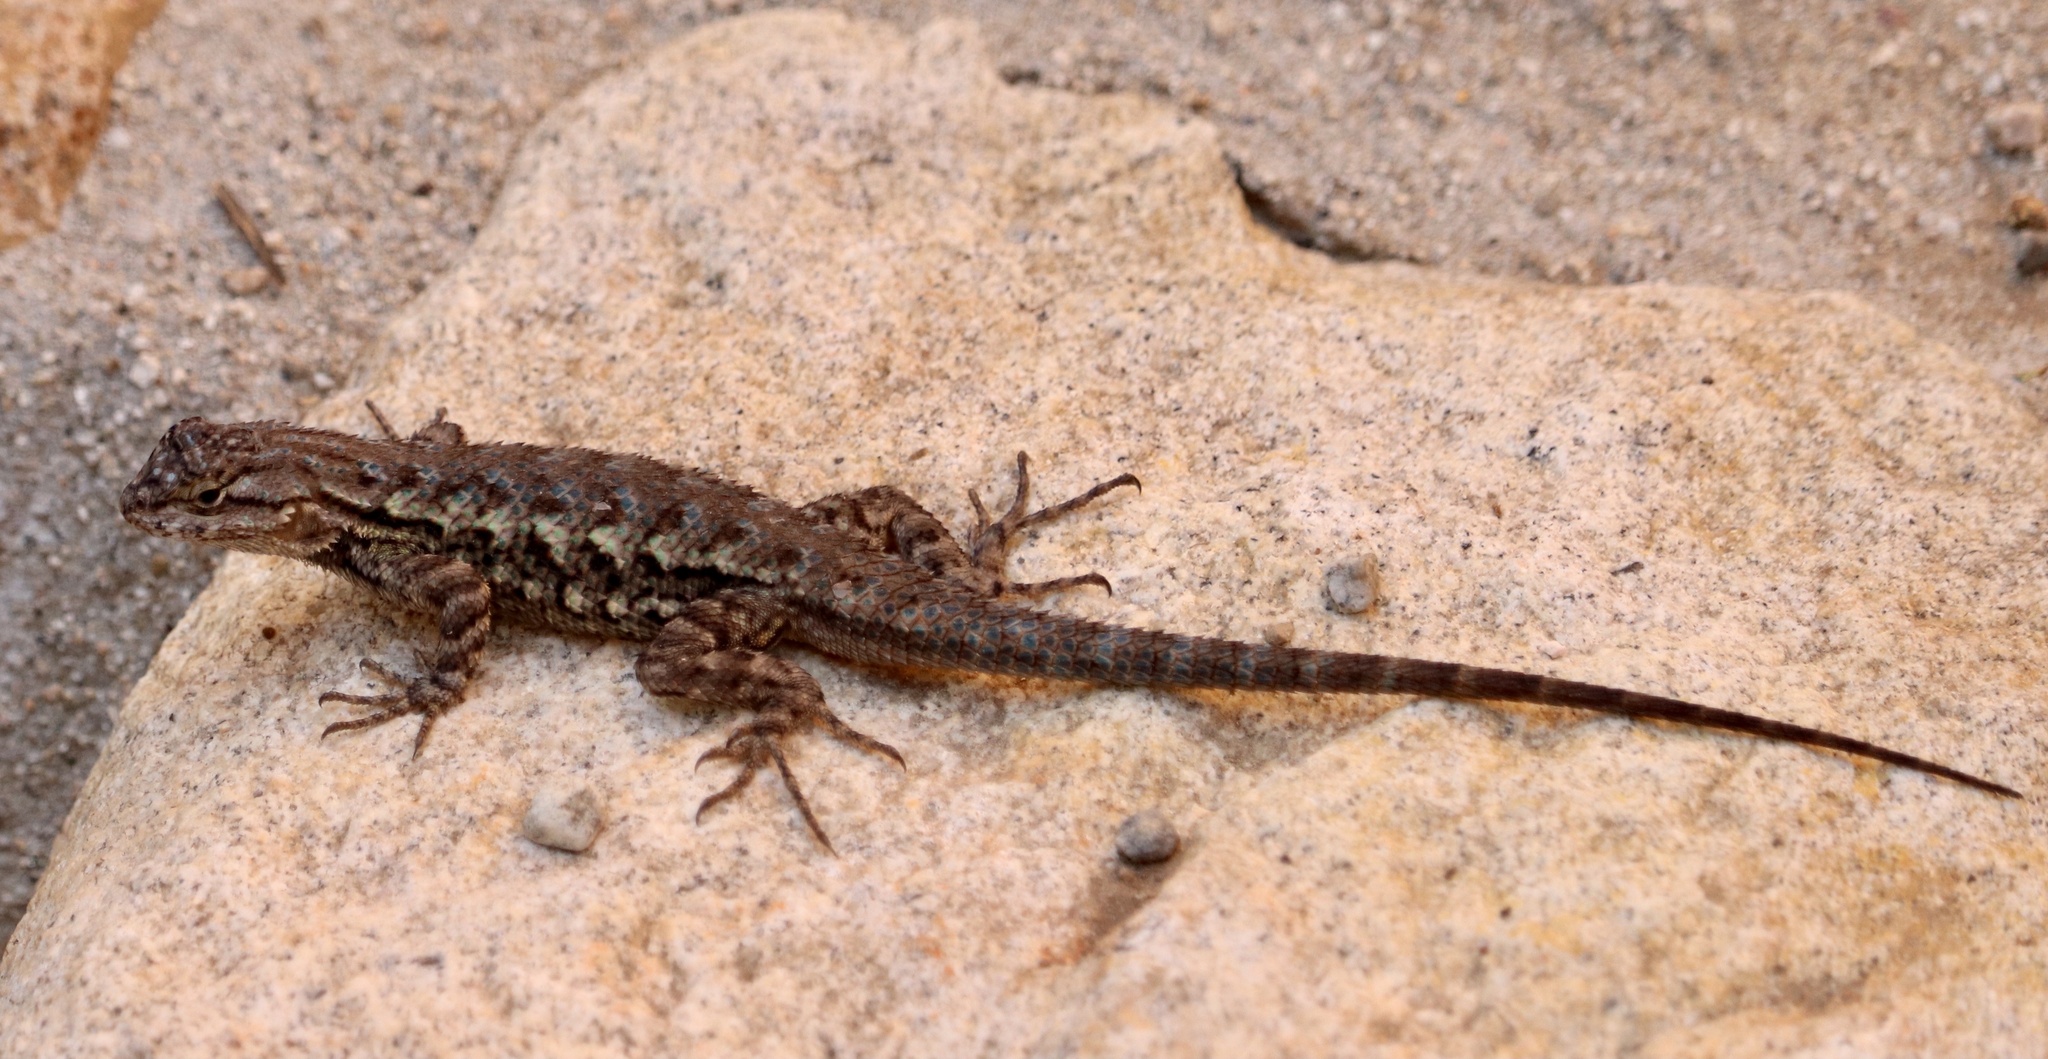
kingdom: Animalia
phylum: Chordata
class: Squamata
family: Phrynosomatidae
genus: Sceloporus
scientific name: Sceloporus occidentalis
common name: Western fence lizard
